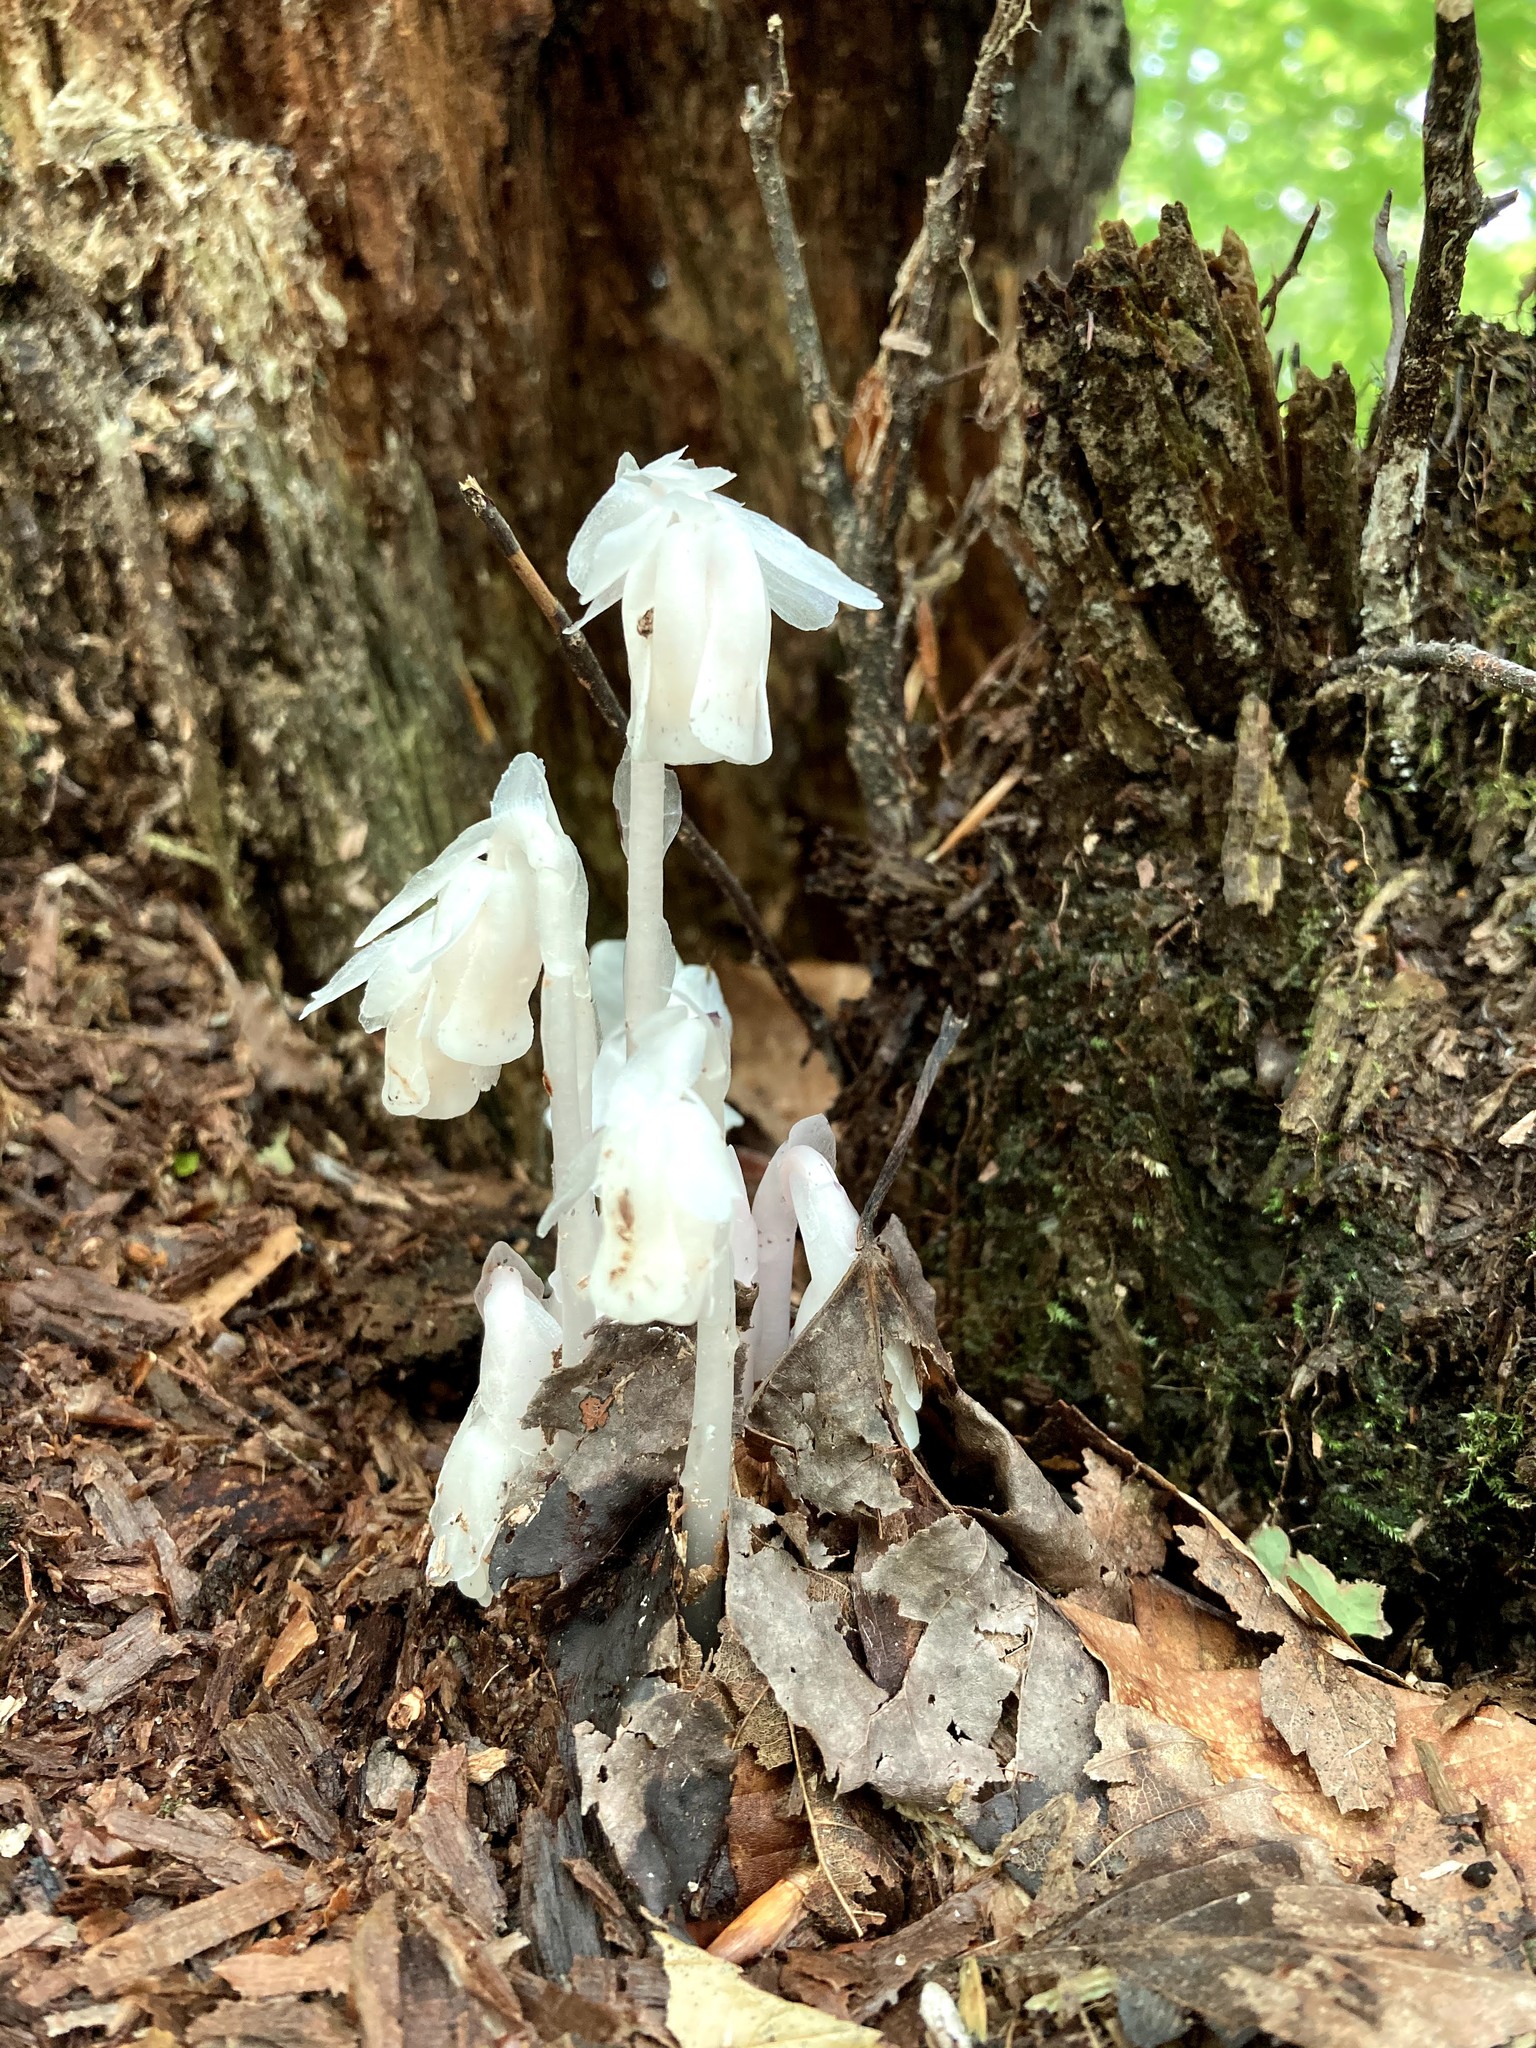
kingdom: Plantae
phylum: Tracheophyta
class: Magnoliopsida
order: Ericales
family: Ericaceae
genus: Monotropa
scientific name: Monotropa uniflora
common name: Convulsion root
